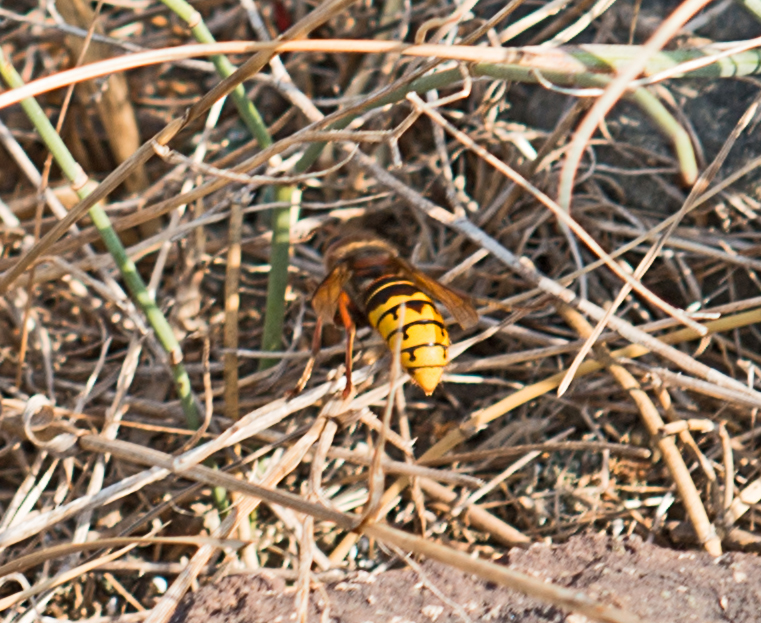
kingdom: Animalia
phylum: Arthropoda
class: Insecta
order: Hymenoptera
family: Vespidae
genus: Vespa
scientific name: Vespa crabro
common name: Hornet
